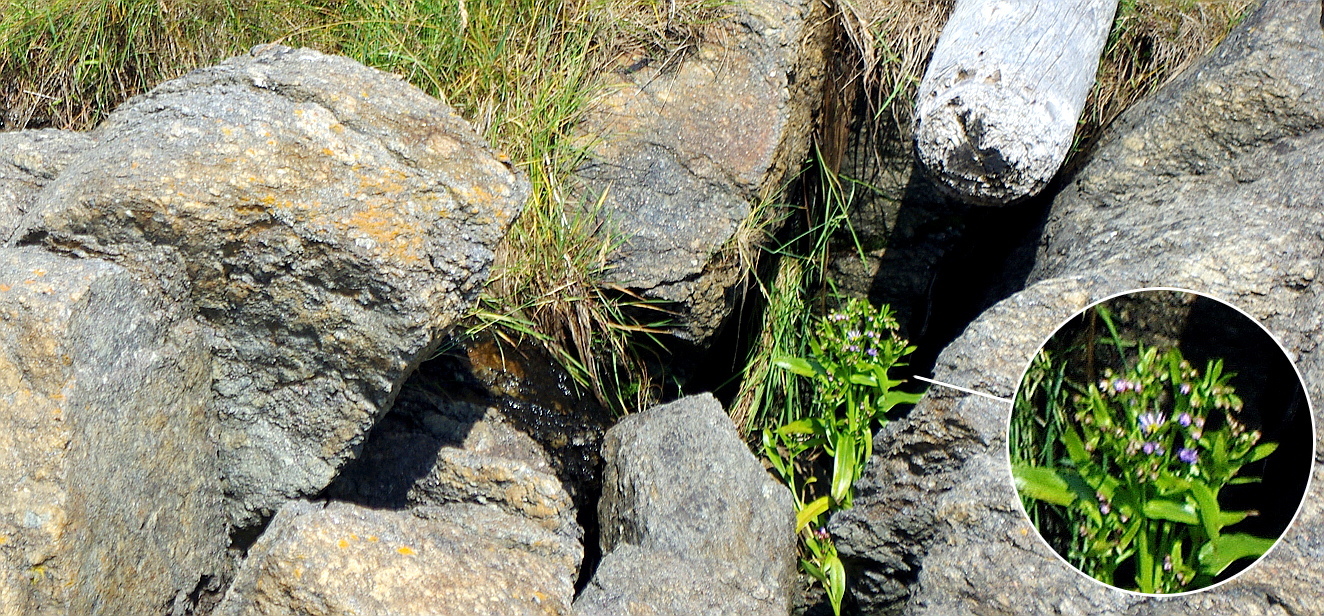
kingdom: Plantae
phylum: Tracheophyta
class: Magnoliopsida
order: Asterales
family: Asteraceae
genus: Tripolium
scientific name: Tripolium pannonicum
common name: Sea aster
